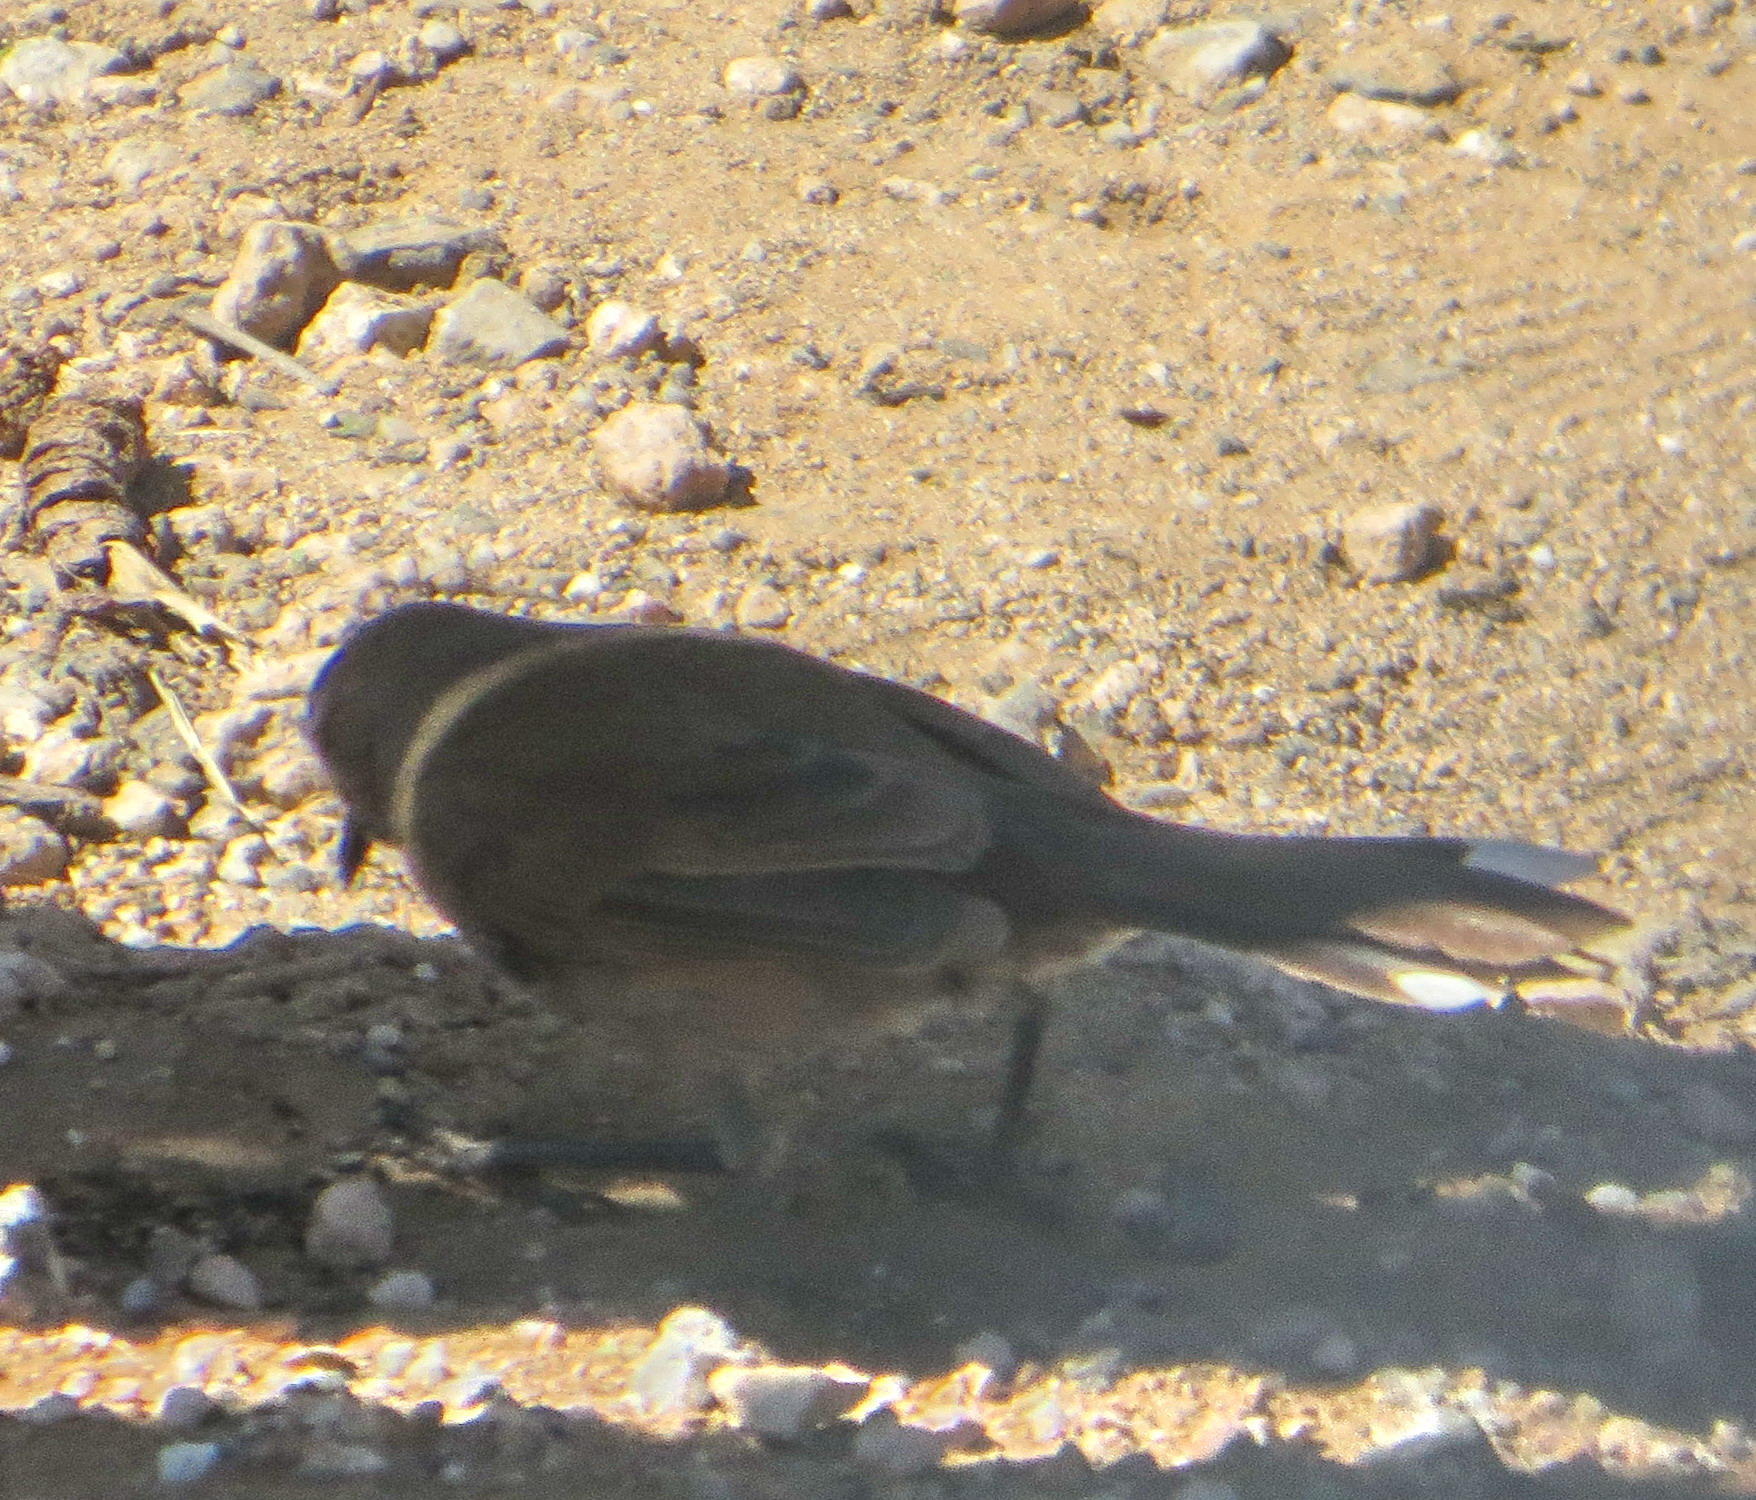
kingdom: Animalia
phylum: Chordata
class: Aves
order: Passeriformes
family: Muscicapidae
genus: Erythropygia
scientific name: Erythropygia coryphoeus
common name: Karoo scrub robin
